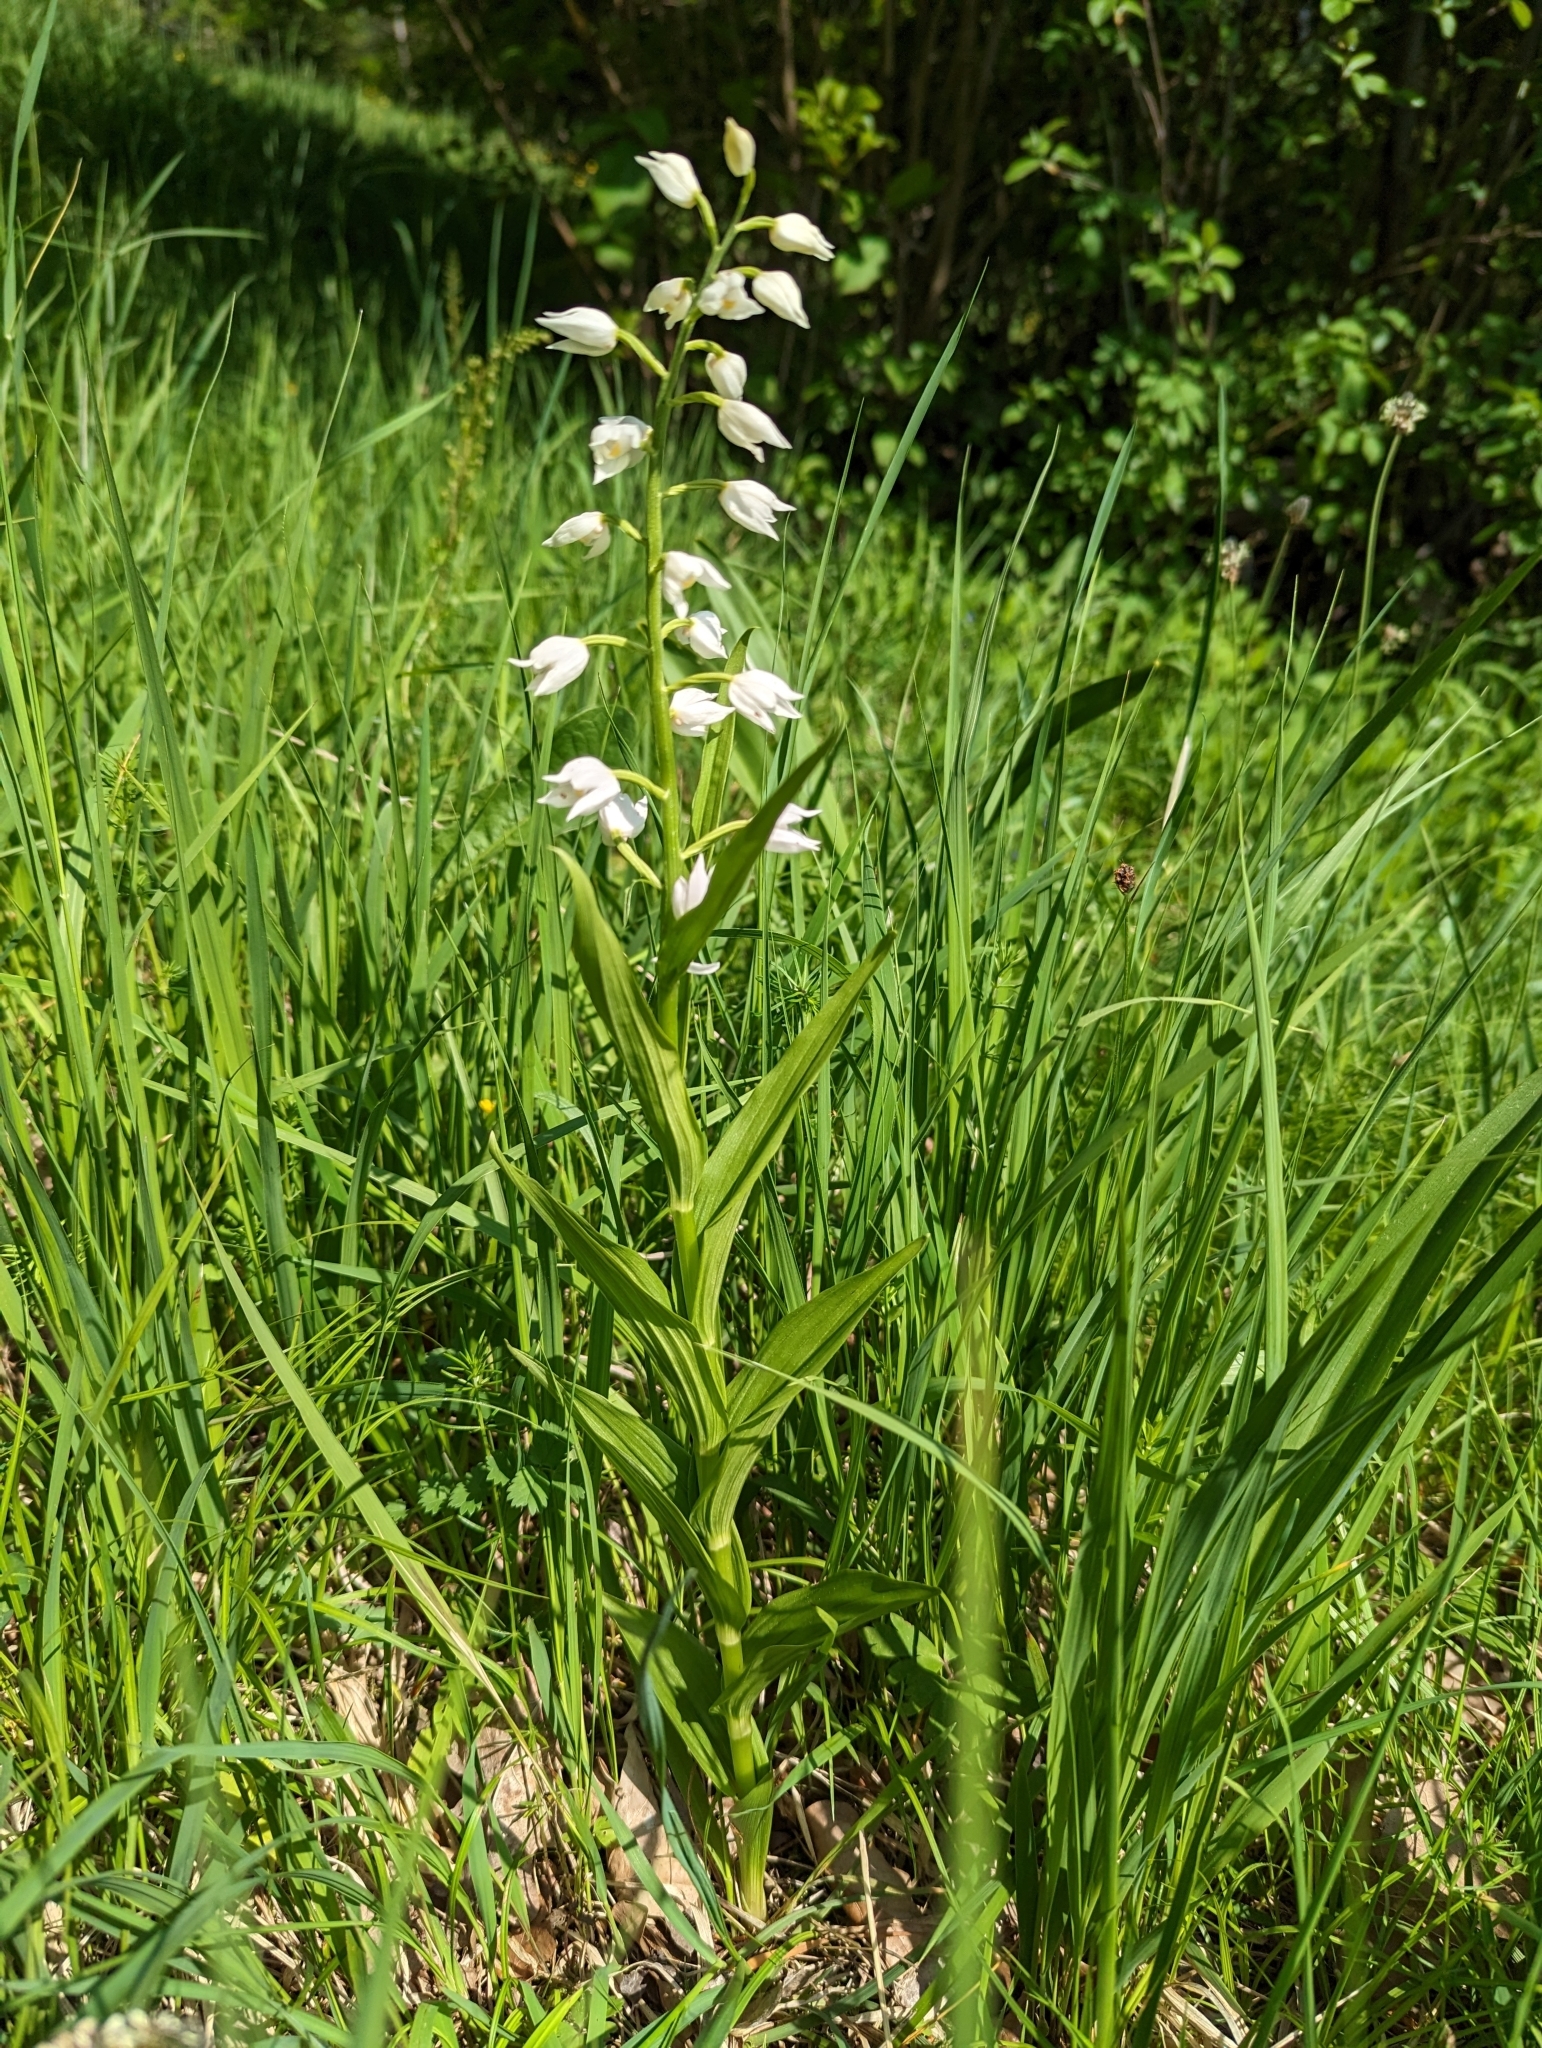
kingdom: Plantae
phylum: Tracheophyta
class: Liliopsida
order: Asparagales
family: Orchidaceae
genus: Cephalanthera
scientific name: Cephalanthera longifolia
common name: Narrow-leaved helleborine
